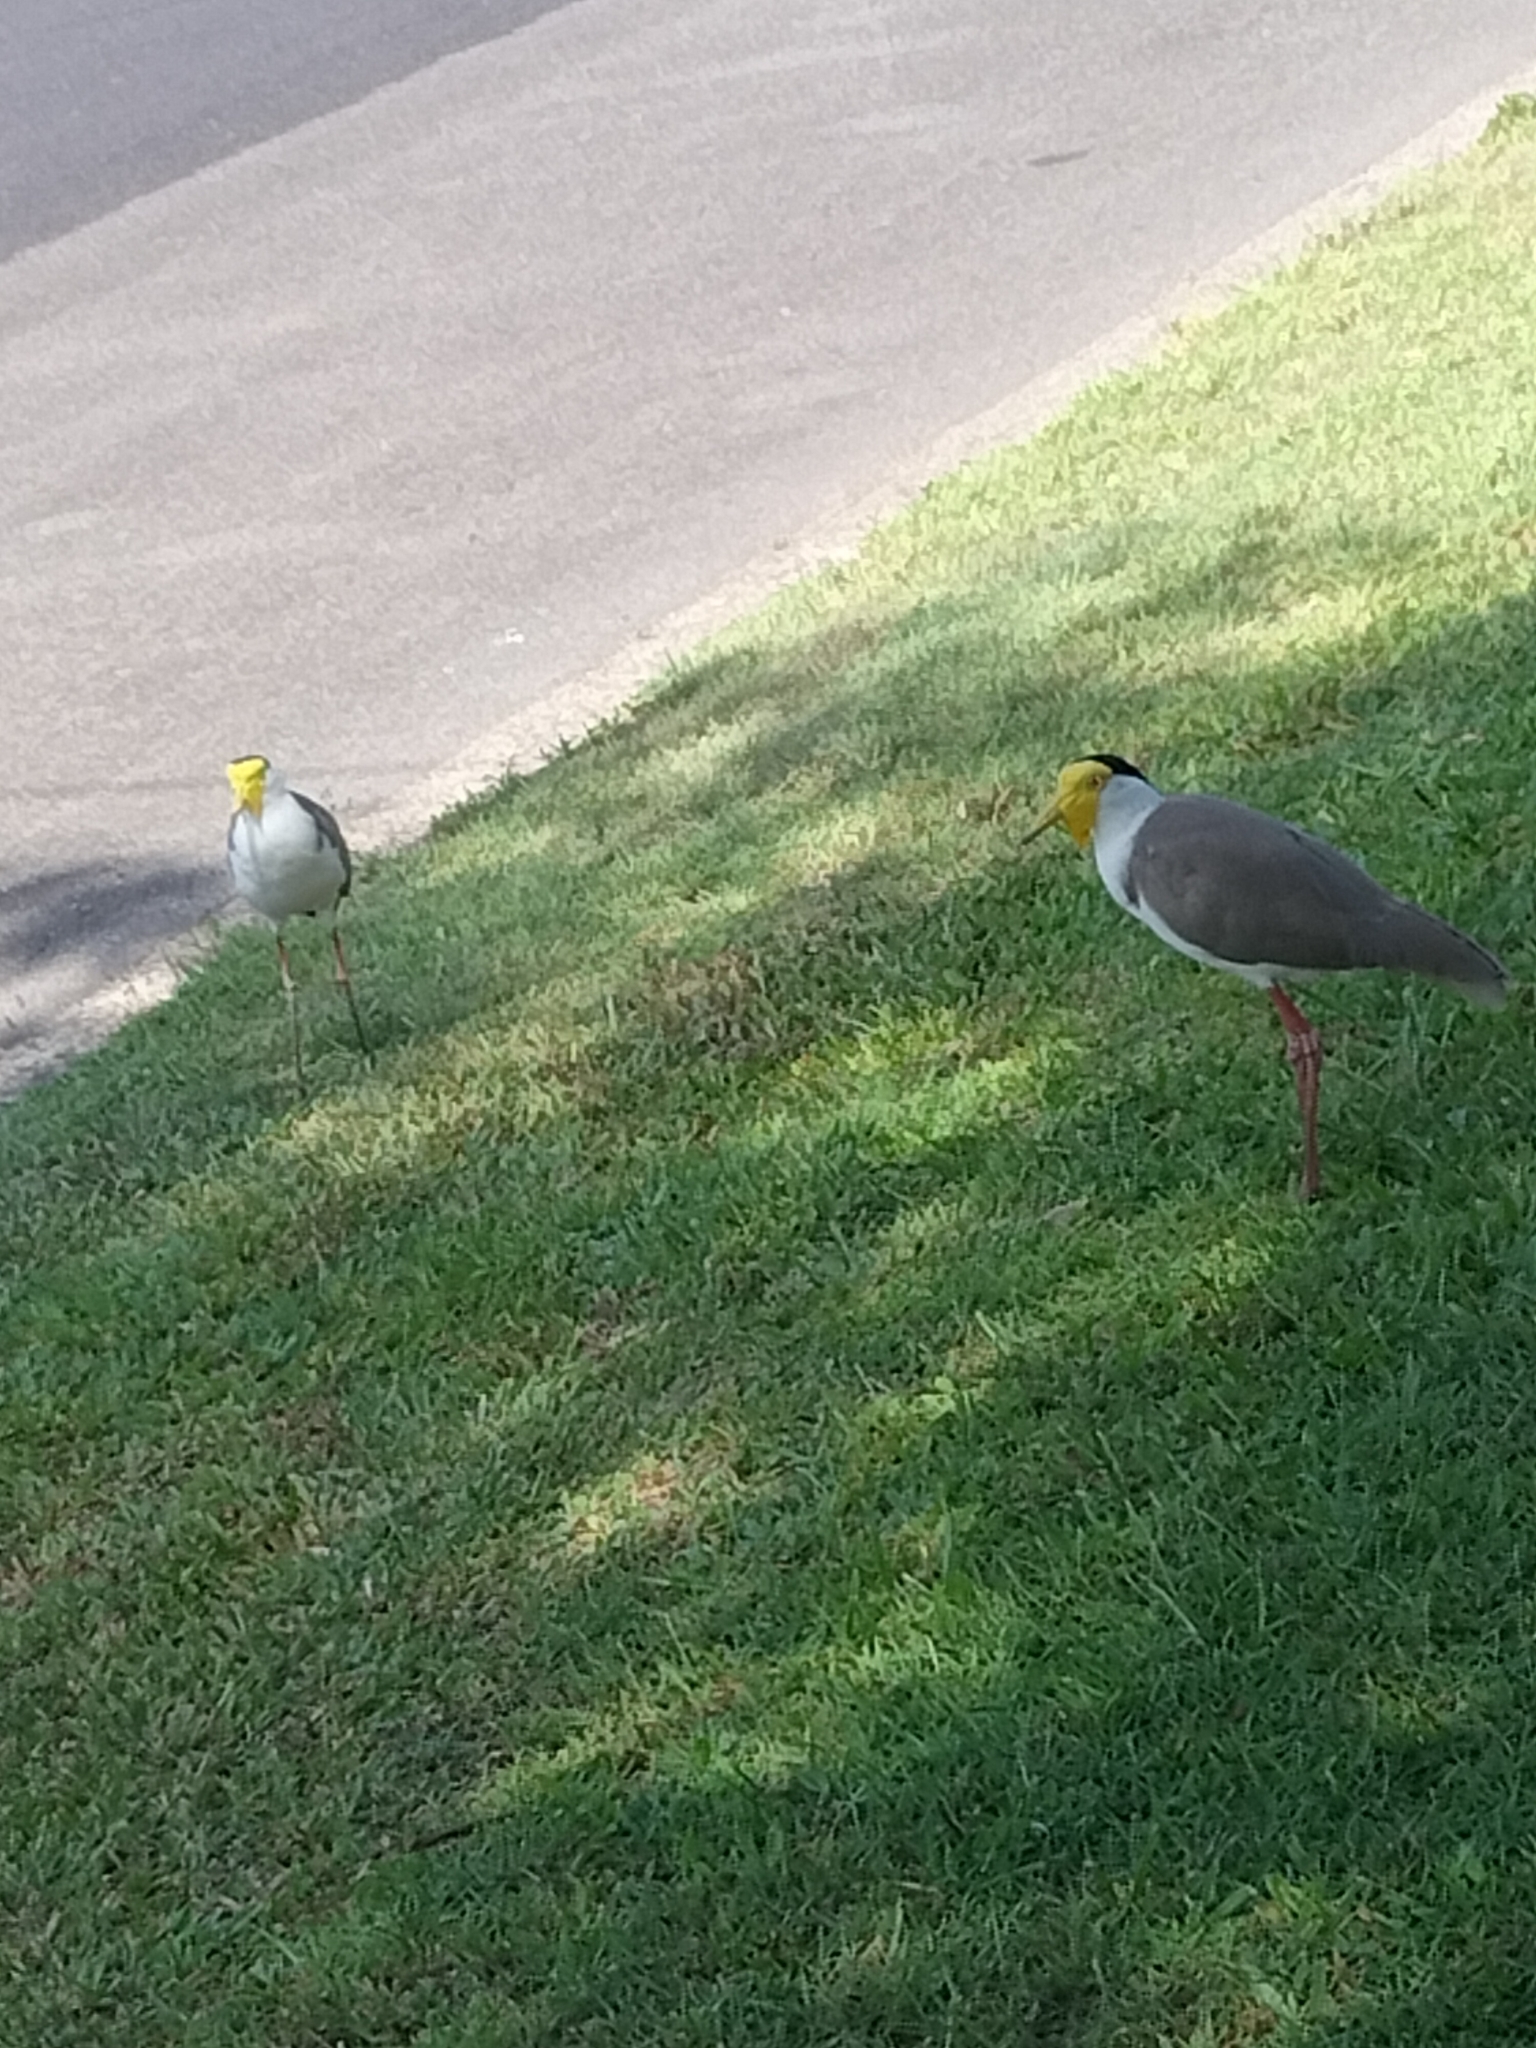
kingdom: Animalia
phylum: Chordata
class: Aves
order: Charadriiformes
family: Charadriidae
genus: Vanellus
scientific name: Vanellus miles
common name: Masked lapwing
